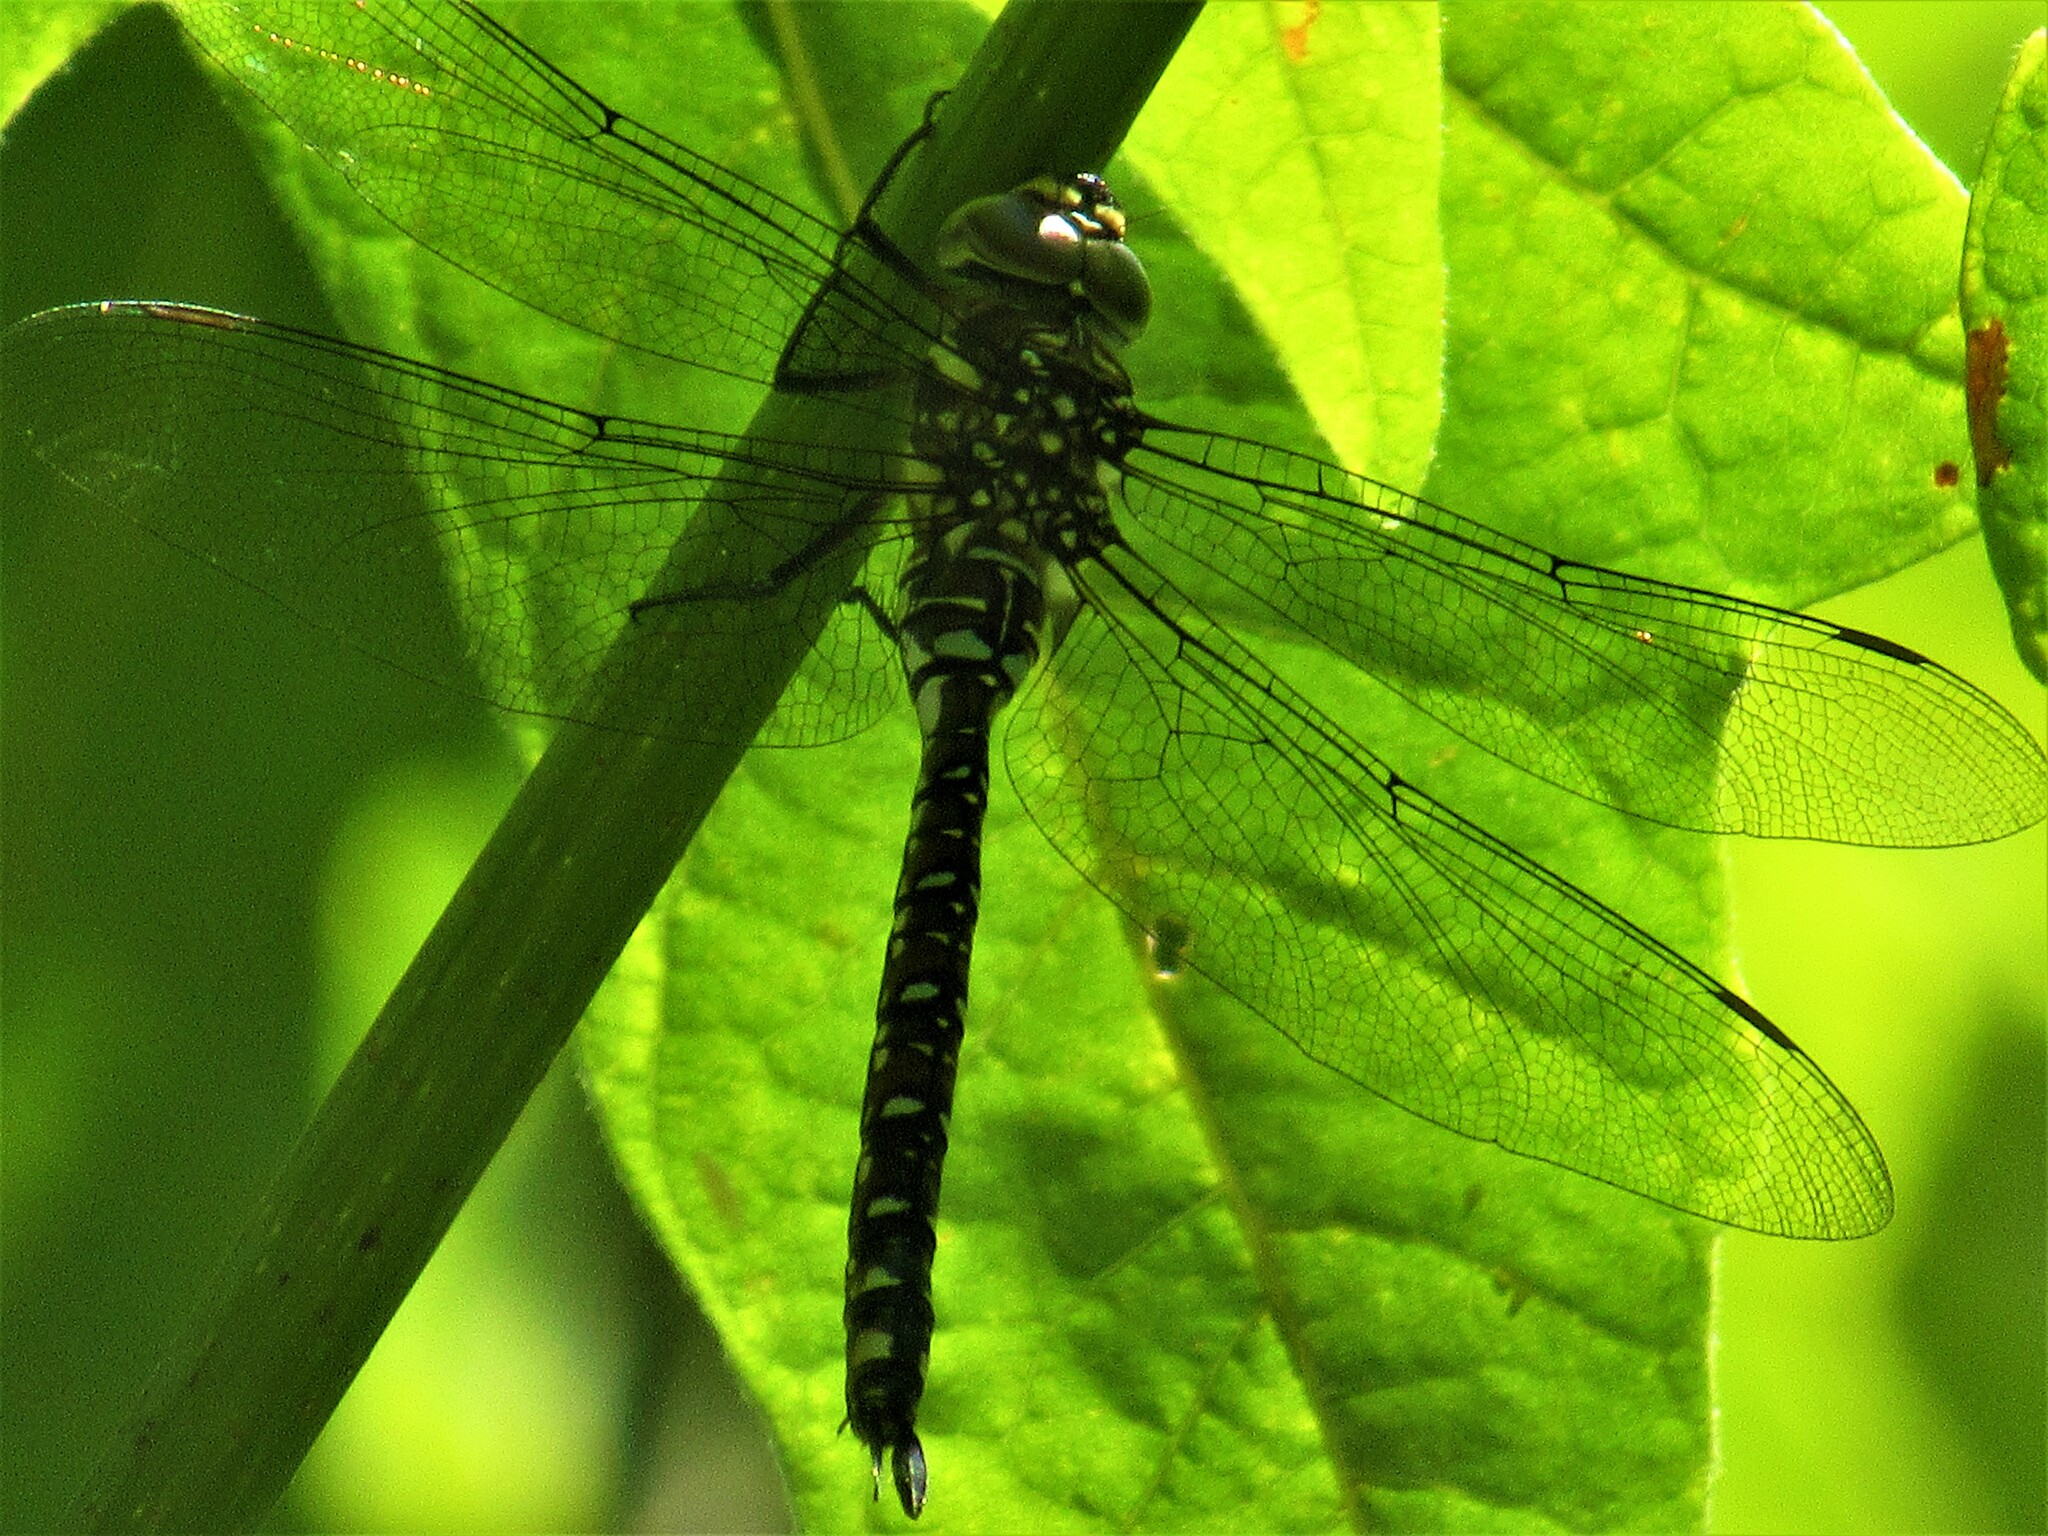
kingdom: Animalia
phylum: Arthropoda
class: Insecta
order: Odonata
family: Aeshnidae
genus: Aeshna
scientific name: Aeshna palmata
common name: Paddle-tailed darner
